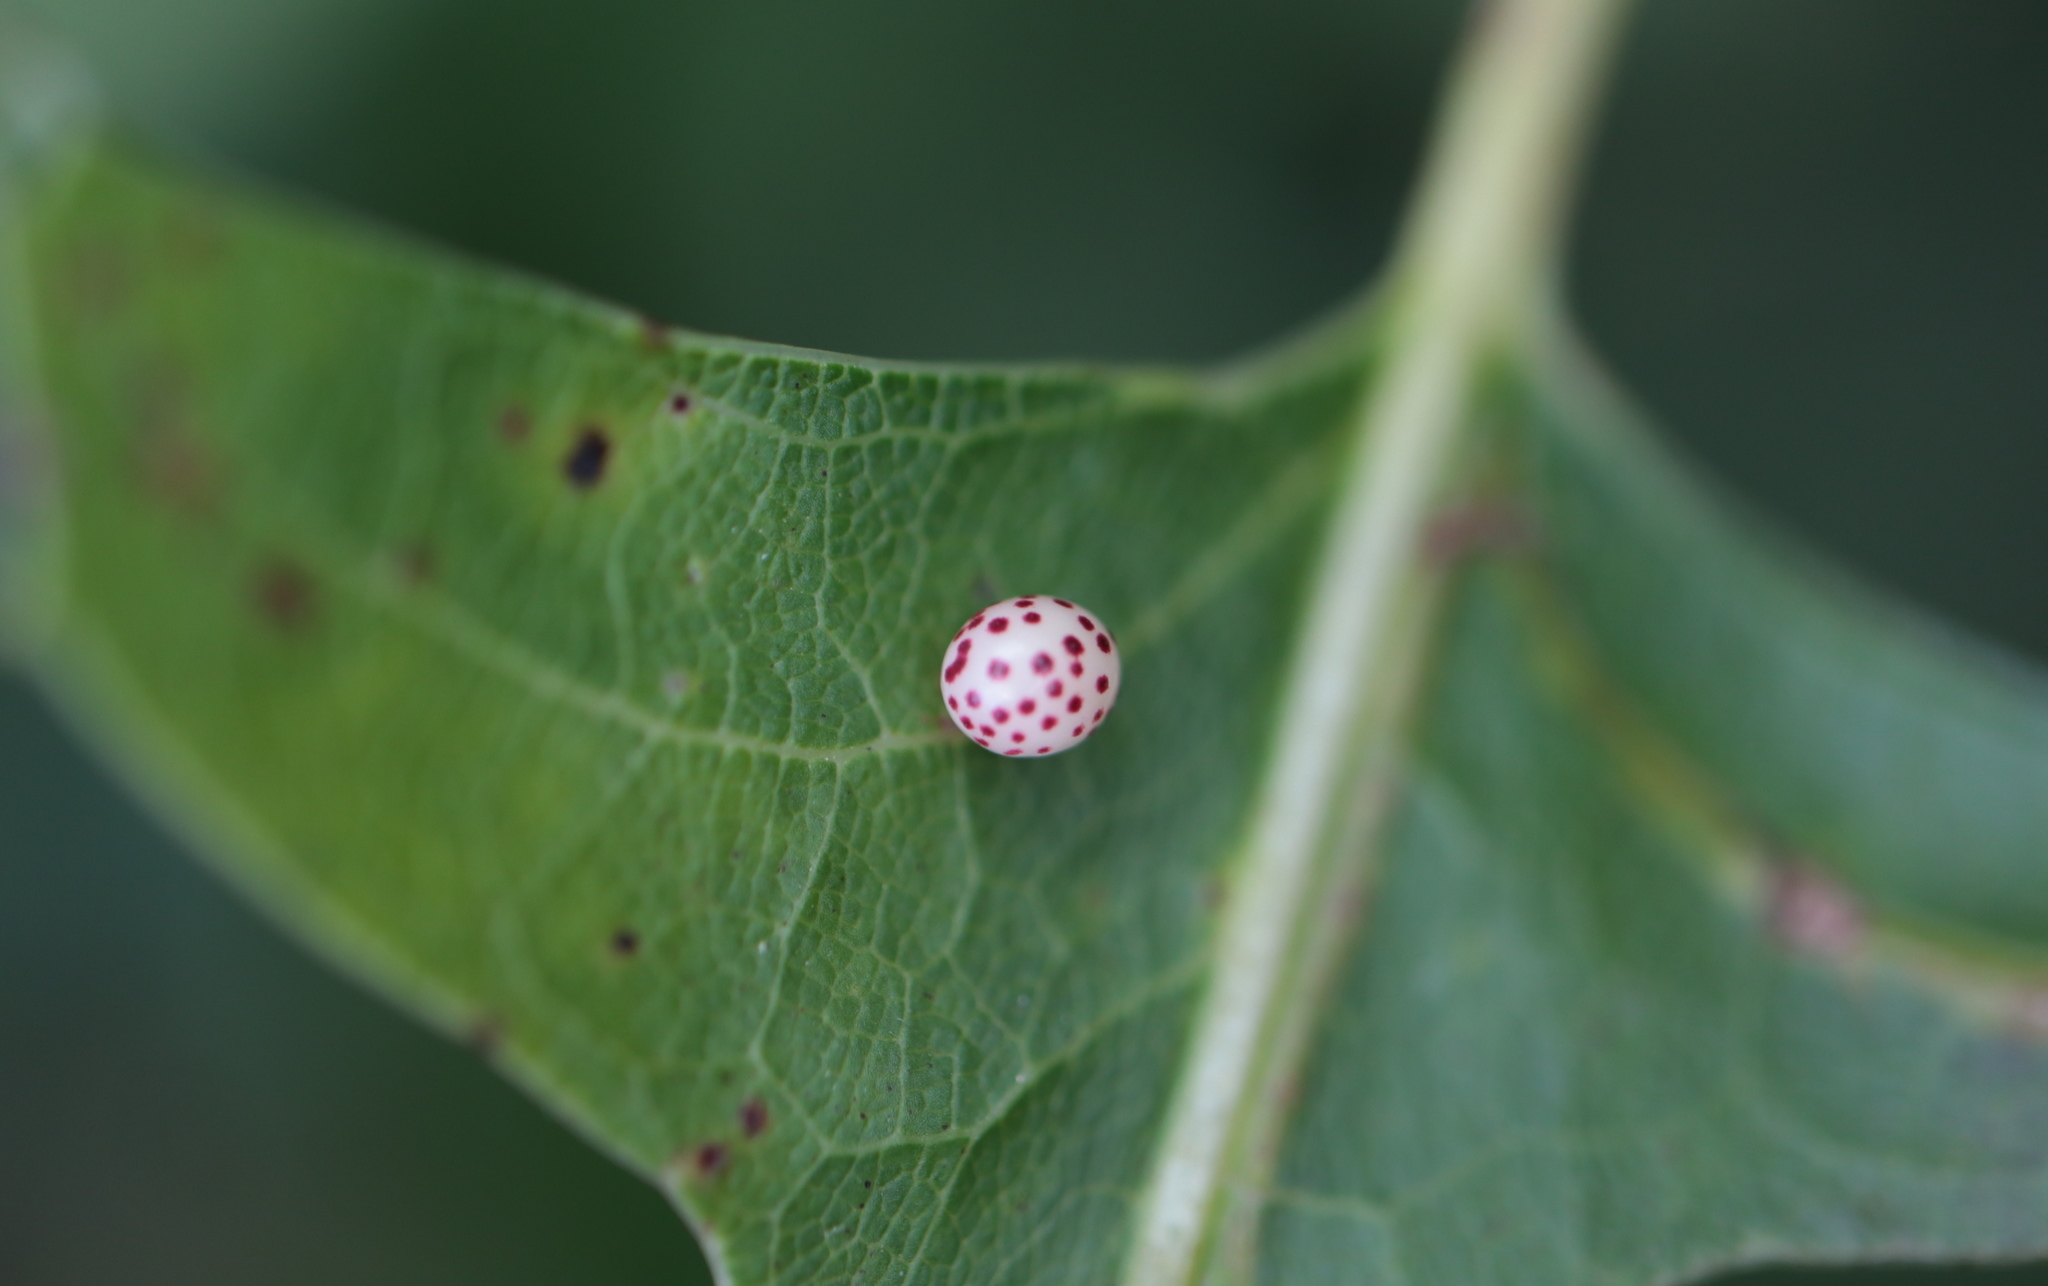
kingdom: Animalia
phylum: Arthropoda
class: Insecta
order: Hymenoptera
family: Cynipidae
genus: Zopheroteras
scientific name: Zopheroteras
